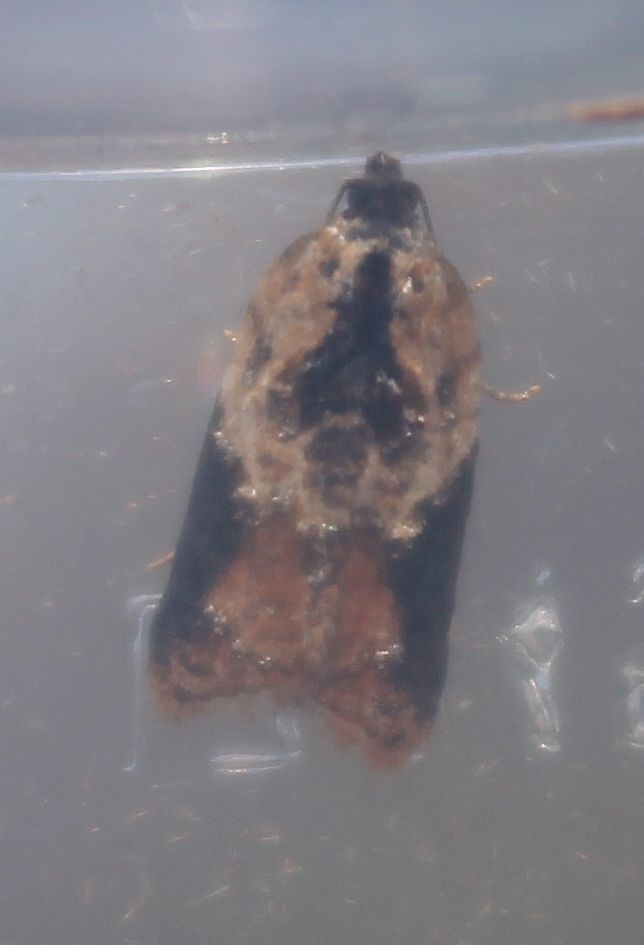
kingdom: Animalia
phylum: Arthropoda
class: Insecta
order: Lepidoptera
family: Tortricidae
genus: Acleris
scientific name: Acleris variegana
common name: Garden rose tortrix
